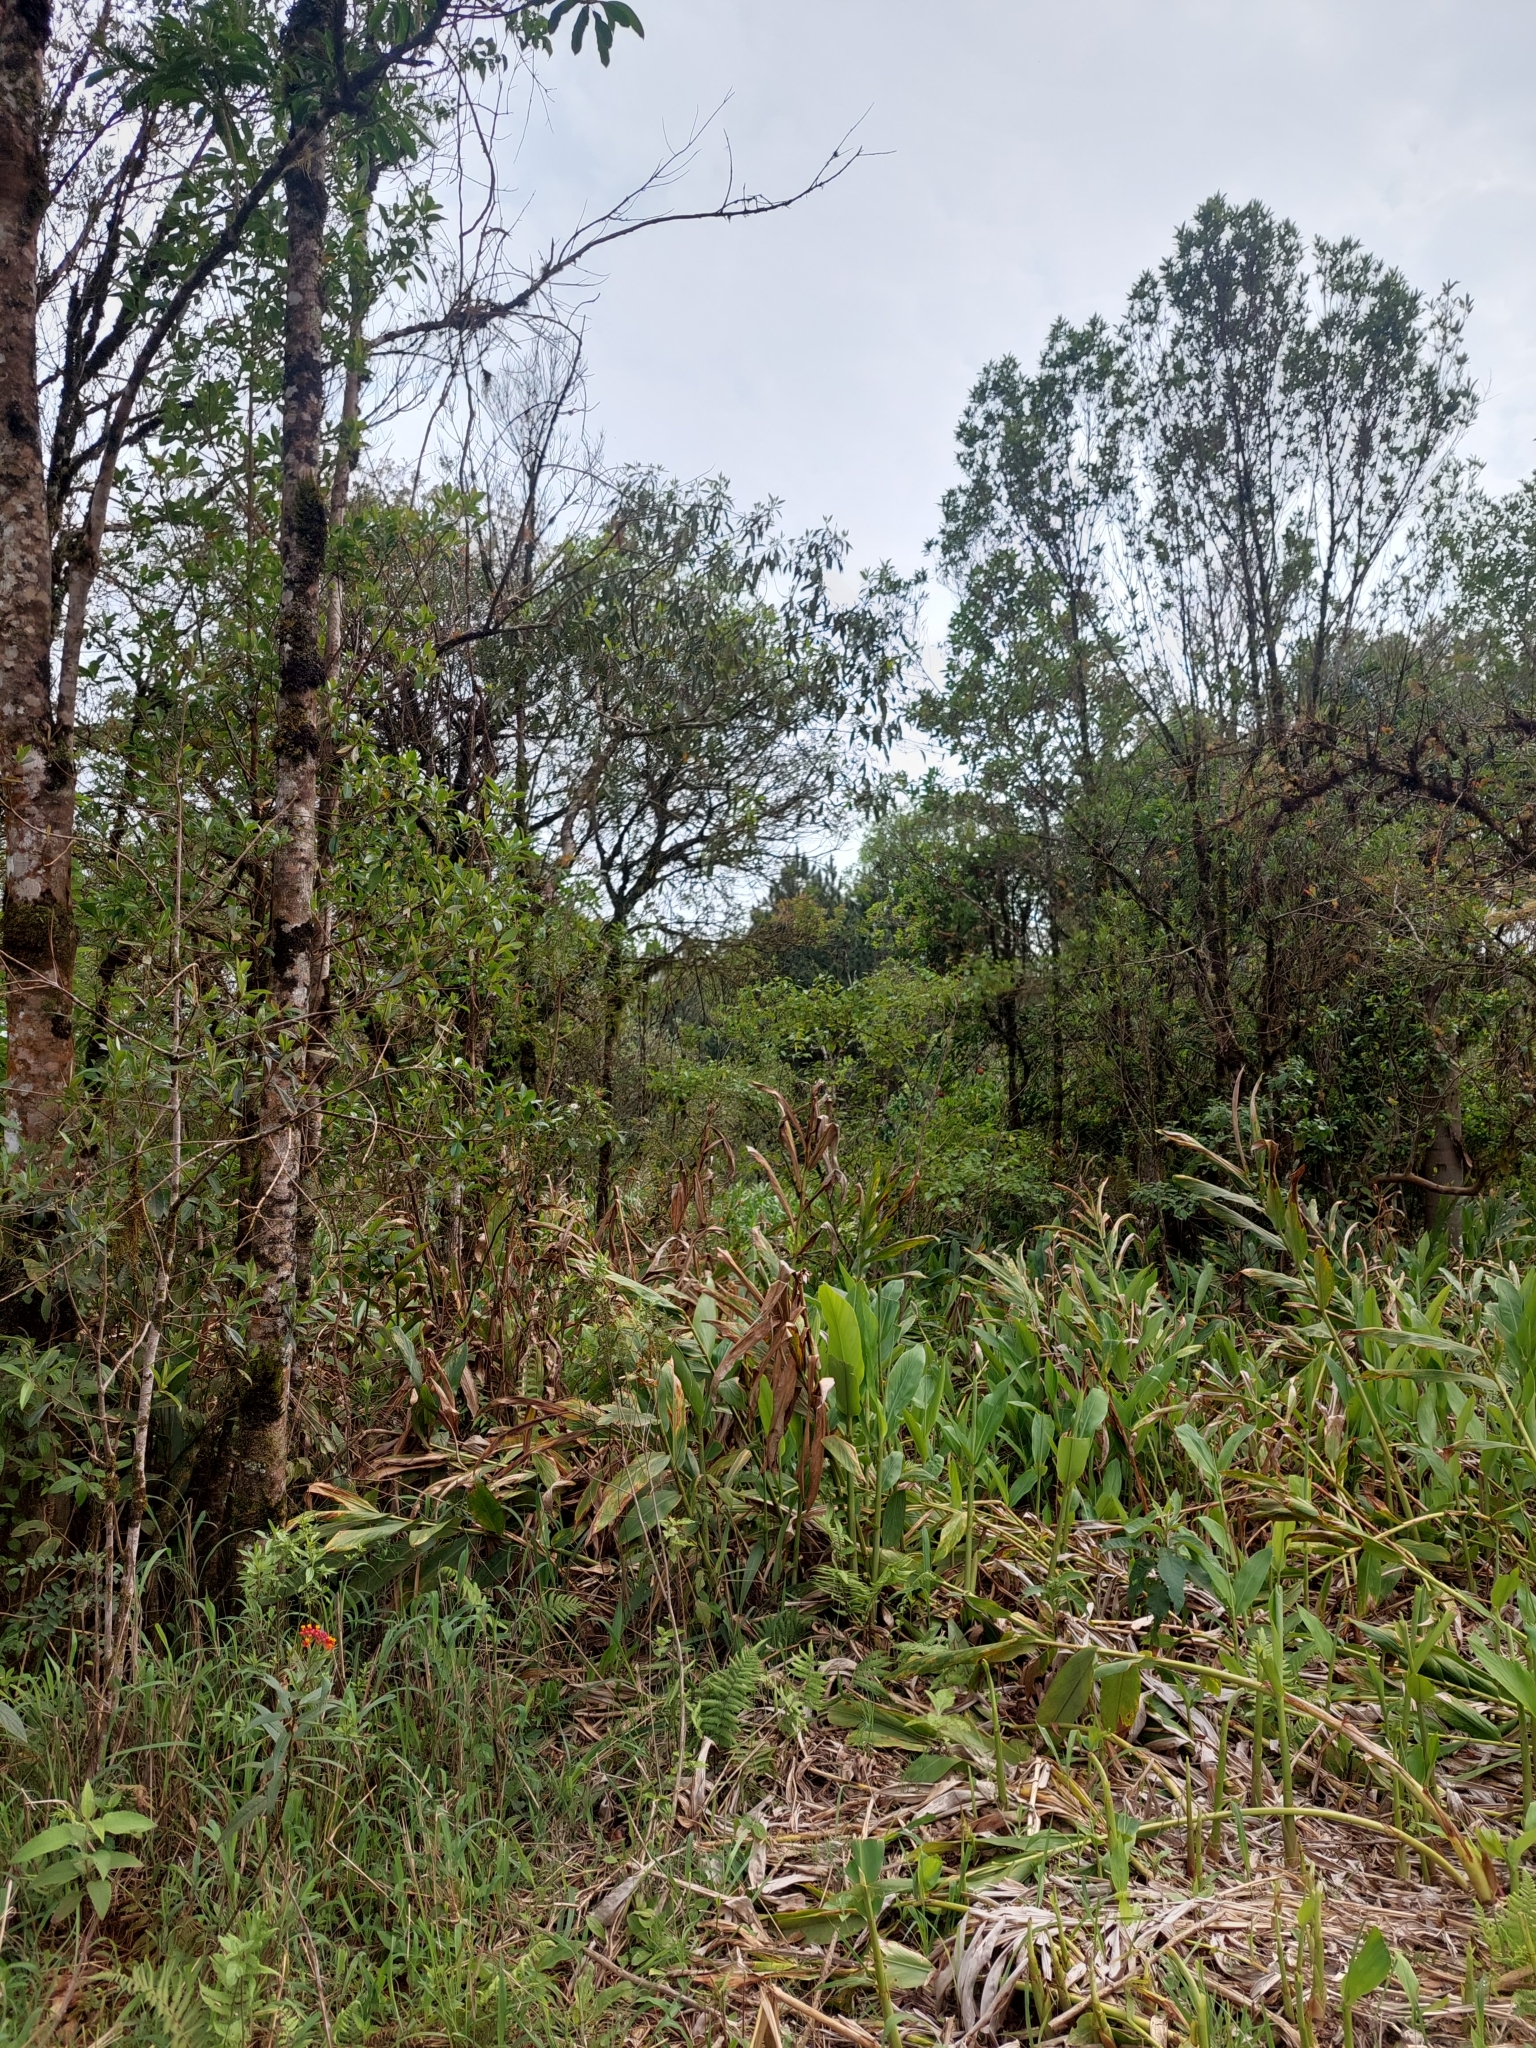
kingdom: Plantae
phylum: Tracheophyta
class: Liliopsida
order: Zingiberales
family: Zingiberaceae
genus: Hedychium
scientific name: Hedychium coronarium
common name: White garland-lily
